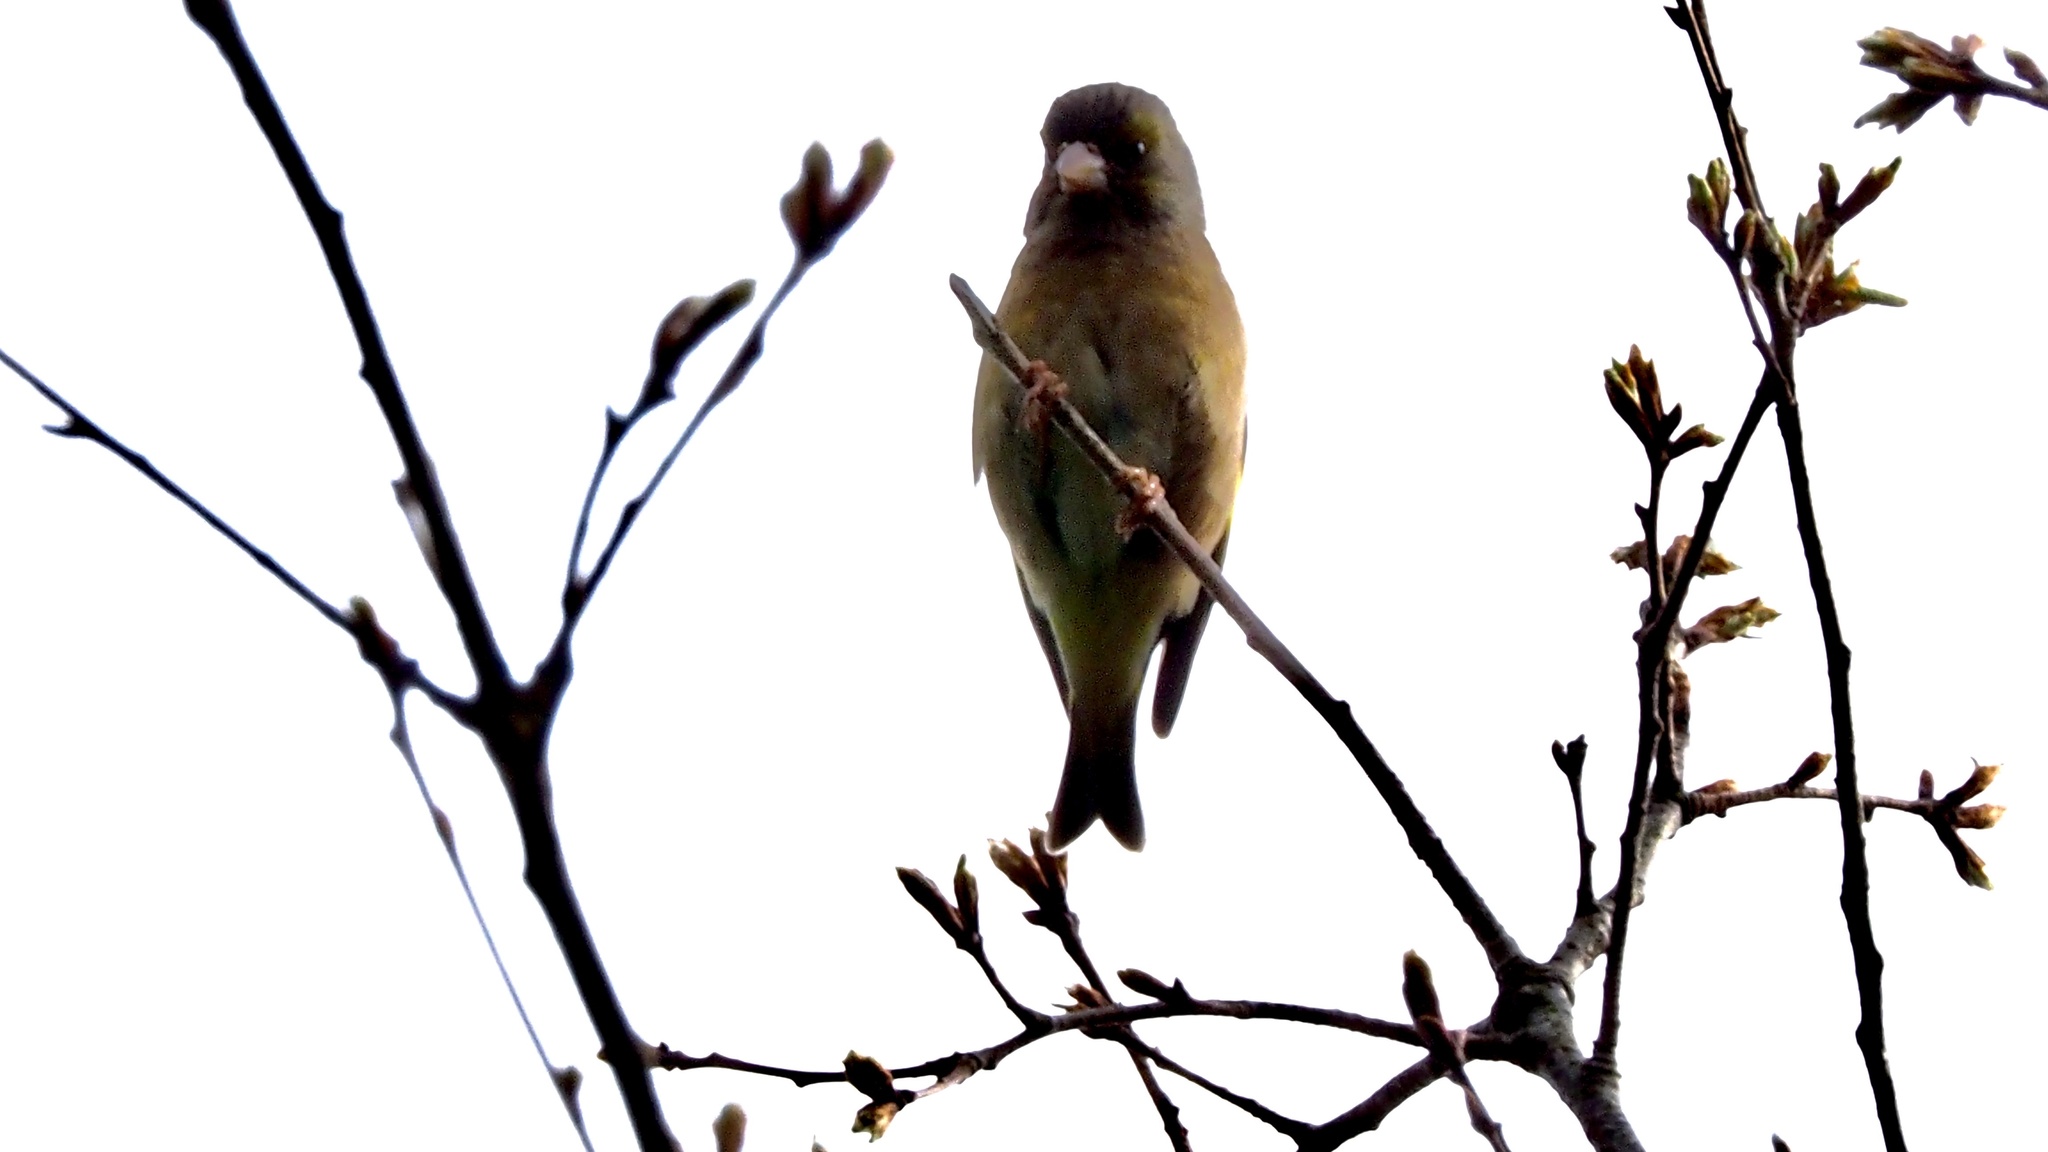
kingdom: Plantae
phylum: Tracheophyta
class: Liliopsida
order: Poales
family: Poaceae
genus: Chloris
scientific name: Chloris sinica
